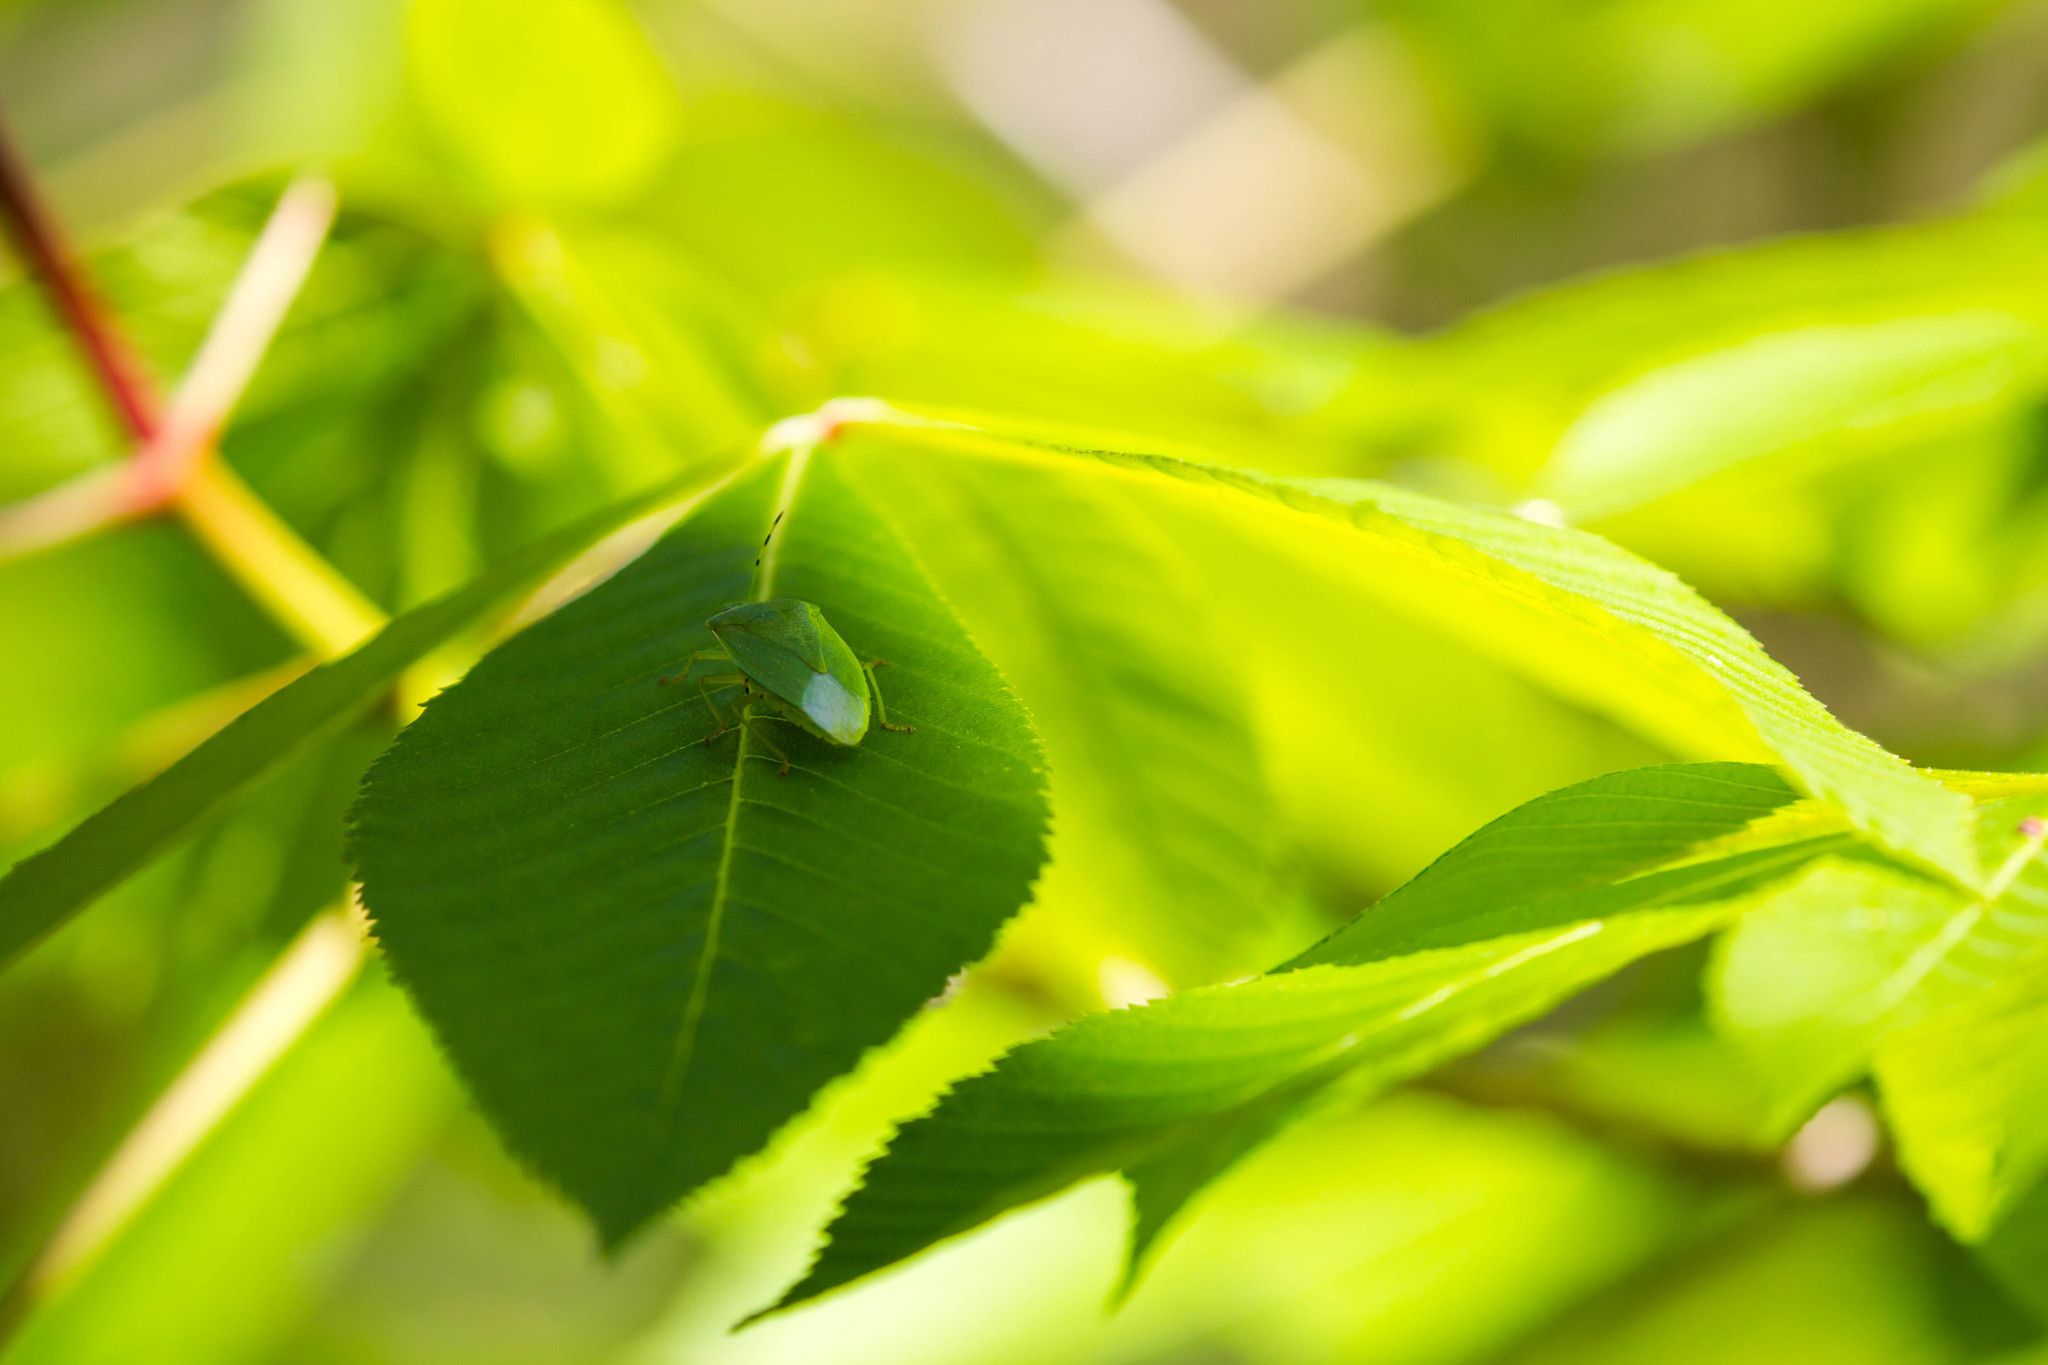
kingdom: Animalia
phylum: Arthropoda
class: Insecta
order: Hemiptera
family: Pentatomidae
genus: Chinavia
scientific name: Chinavia hilaris
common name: Green stink bug
